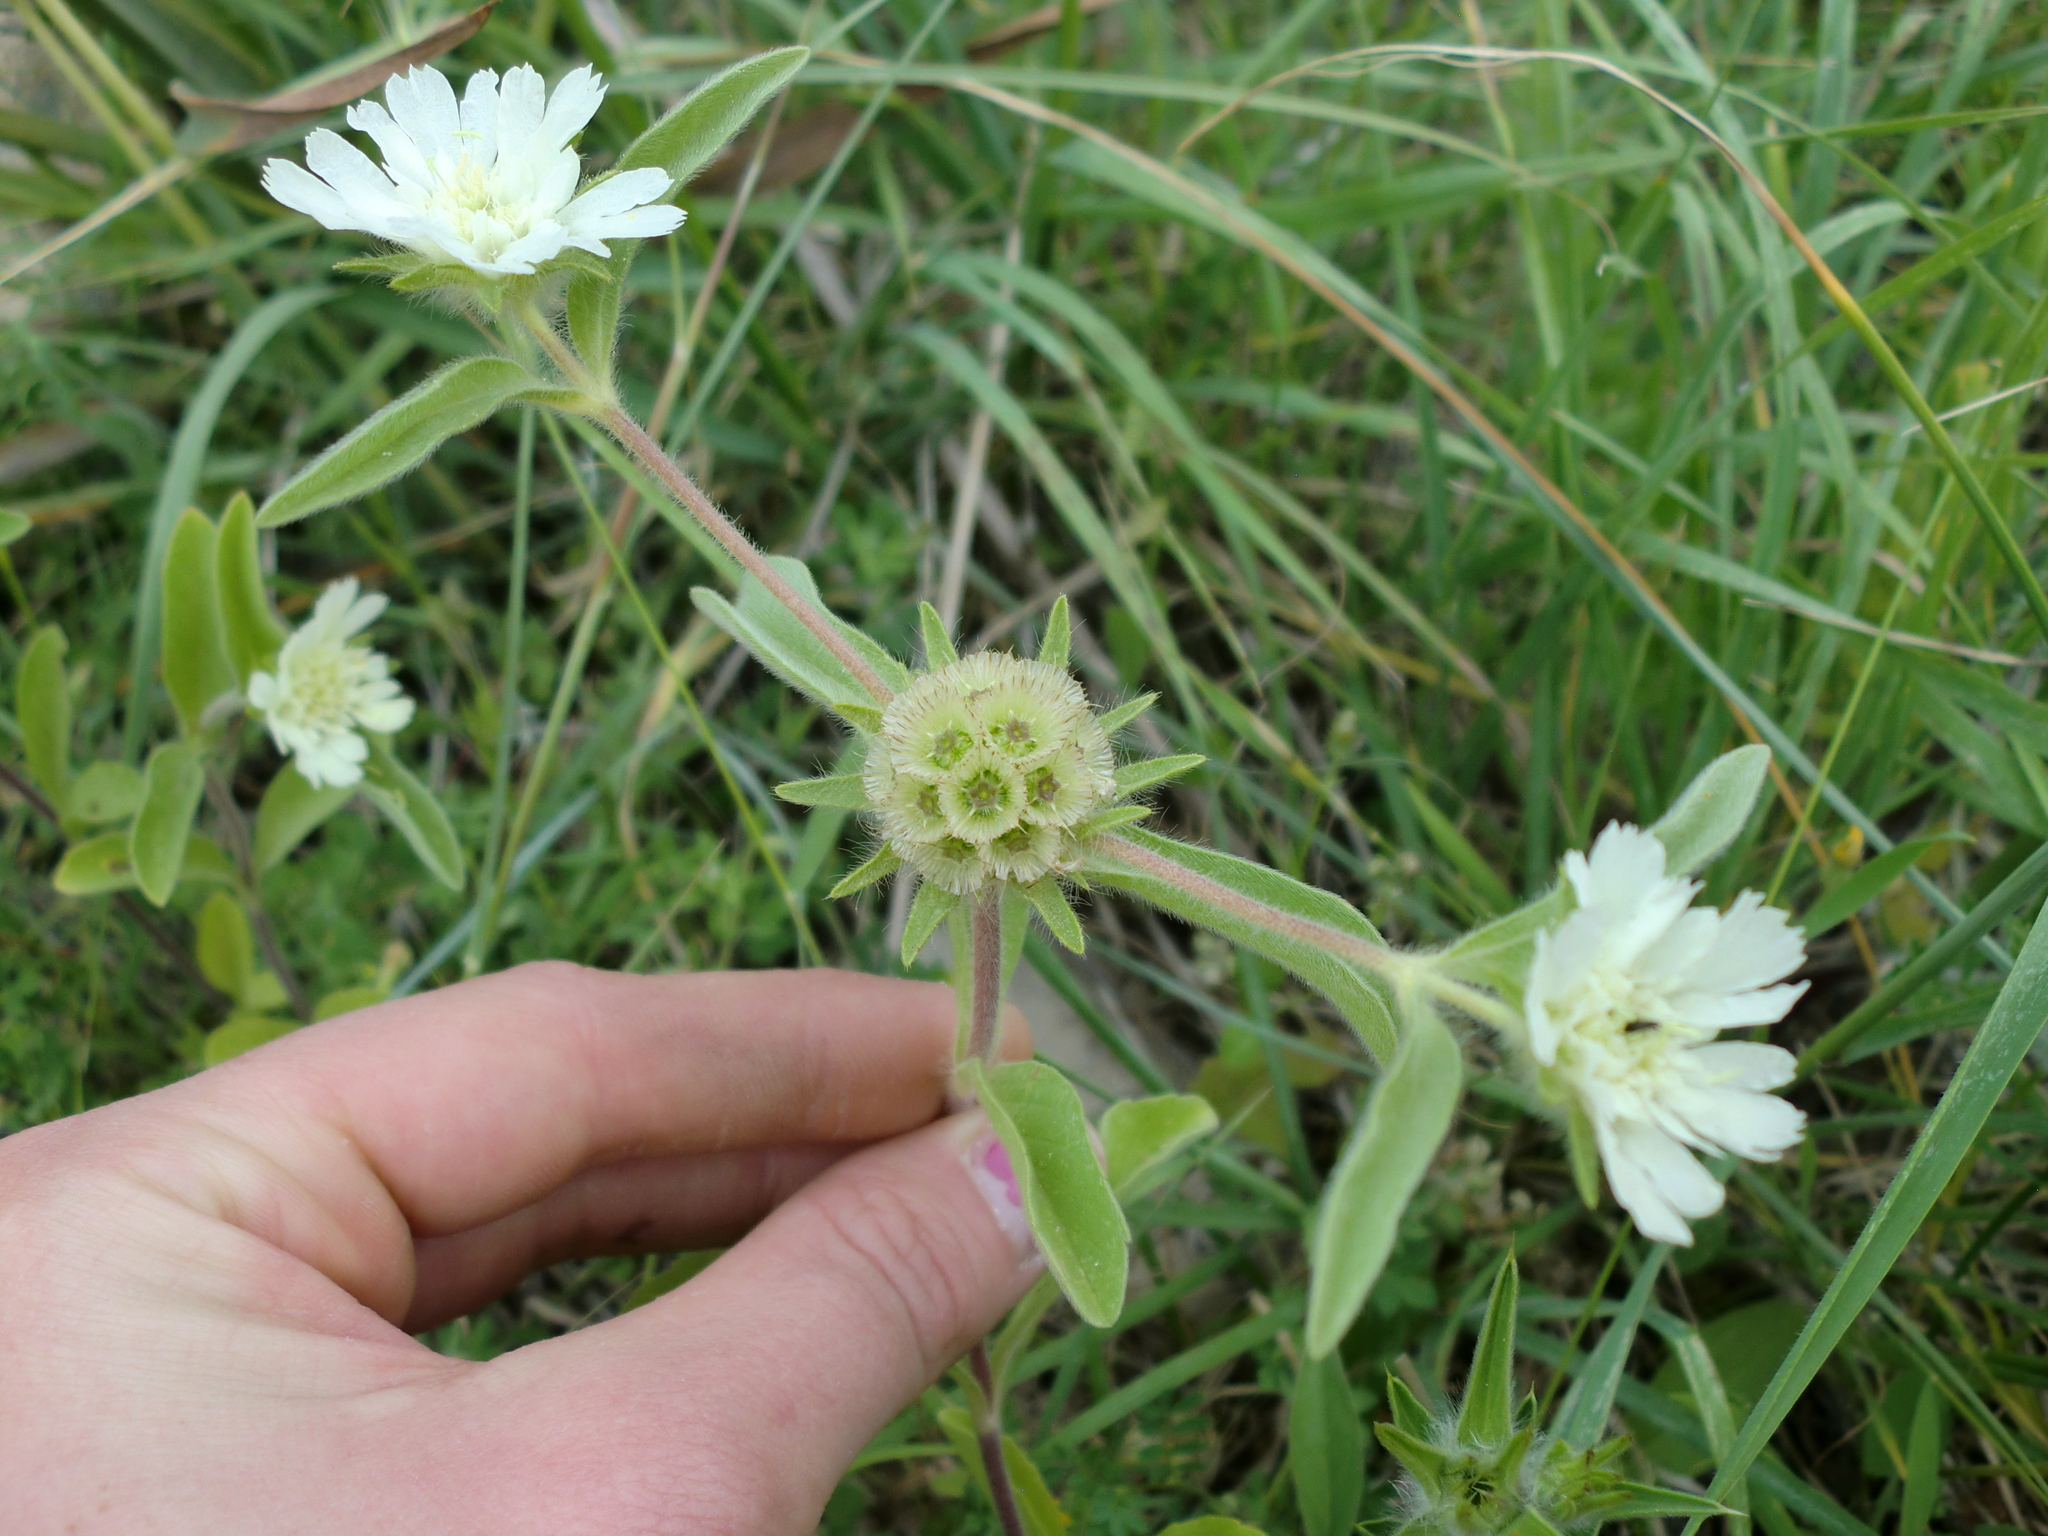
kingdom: Plantae
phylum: Tracheophyta
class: Magnoliopsida
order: Dipsacales
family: Caprifoliaceae
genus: Lomelosia
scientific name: Lomelosia prolifera
